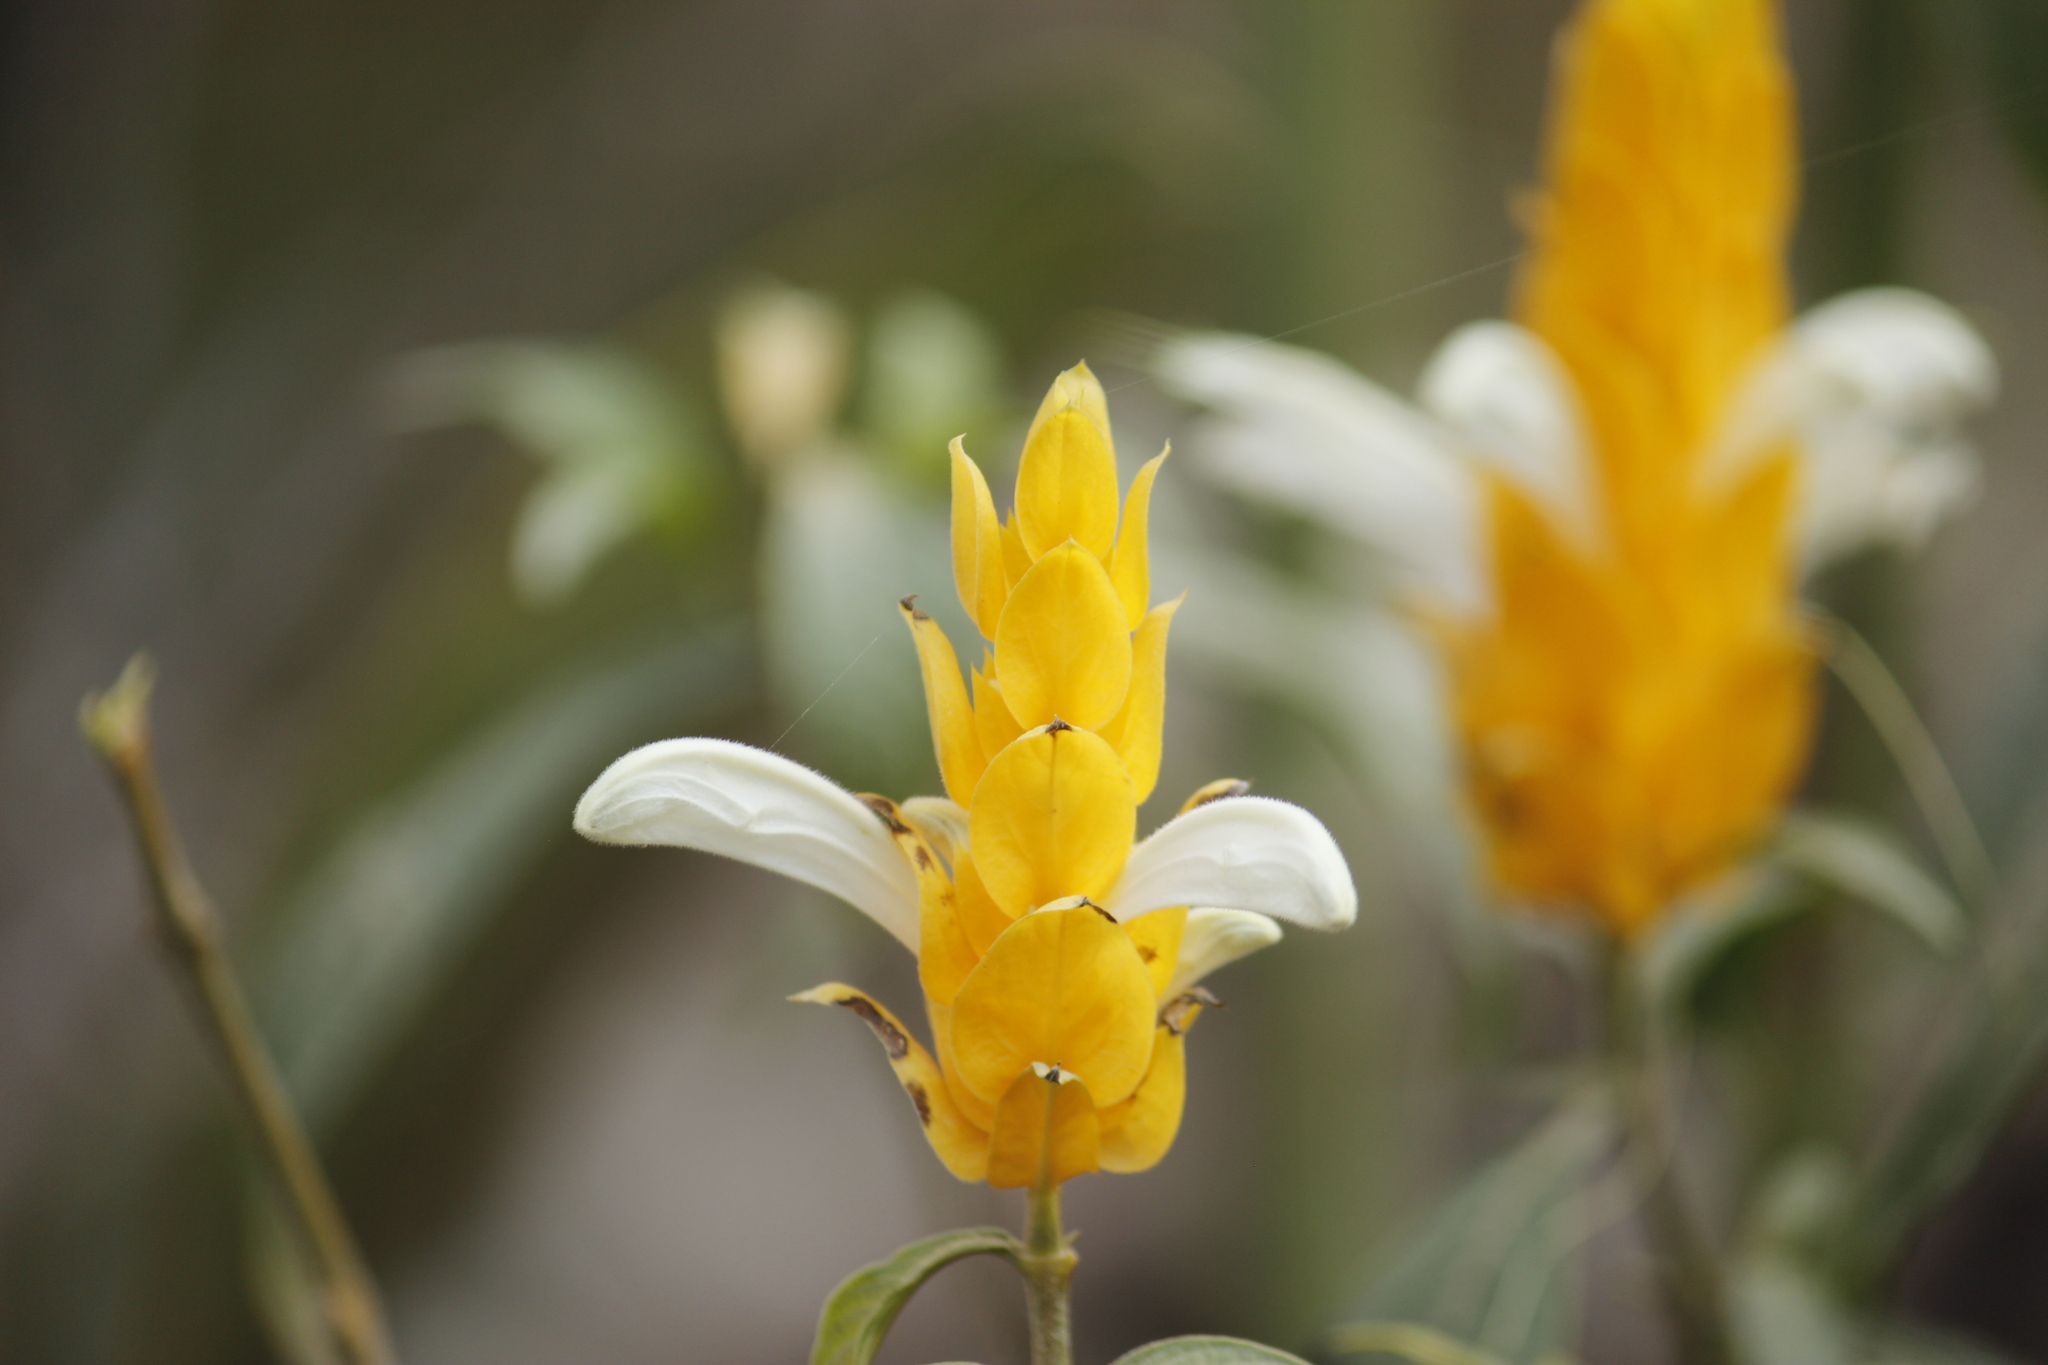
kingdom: Plantae
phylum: Tracheophyta
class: Magnoliopsida
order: Lamiales
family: Acanthaceae
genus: Pachystachys
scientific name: Pachystachys lutea
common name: Golden shrimp-plant
